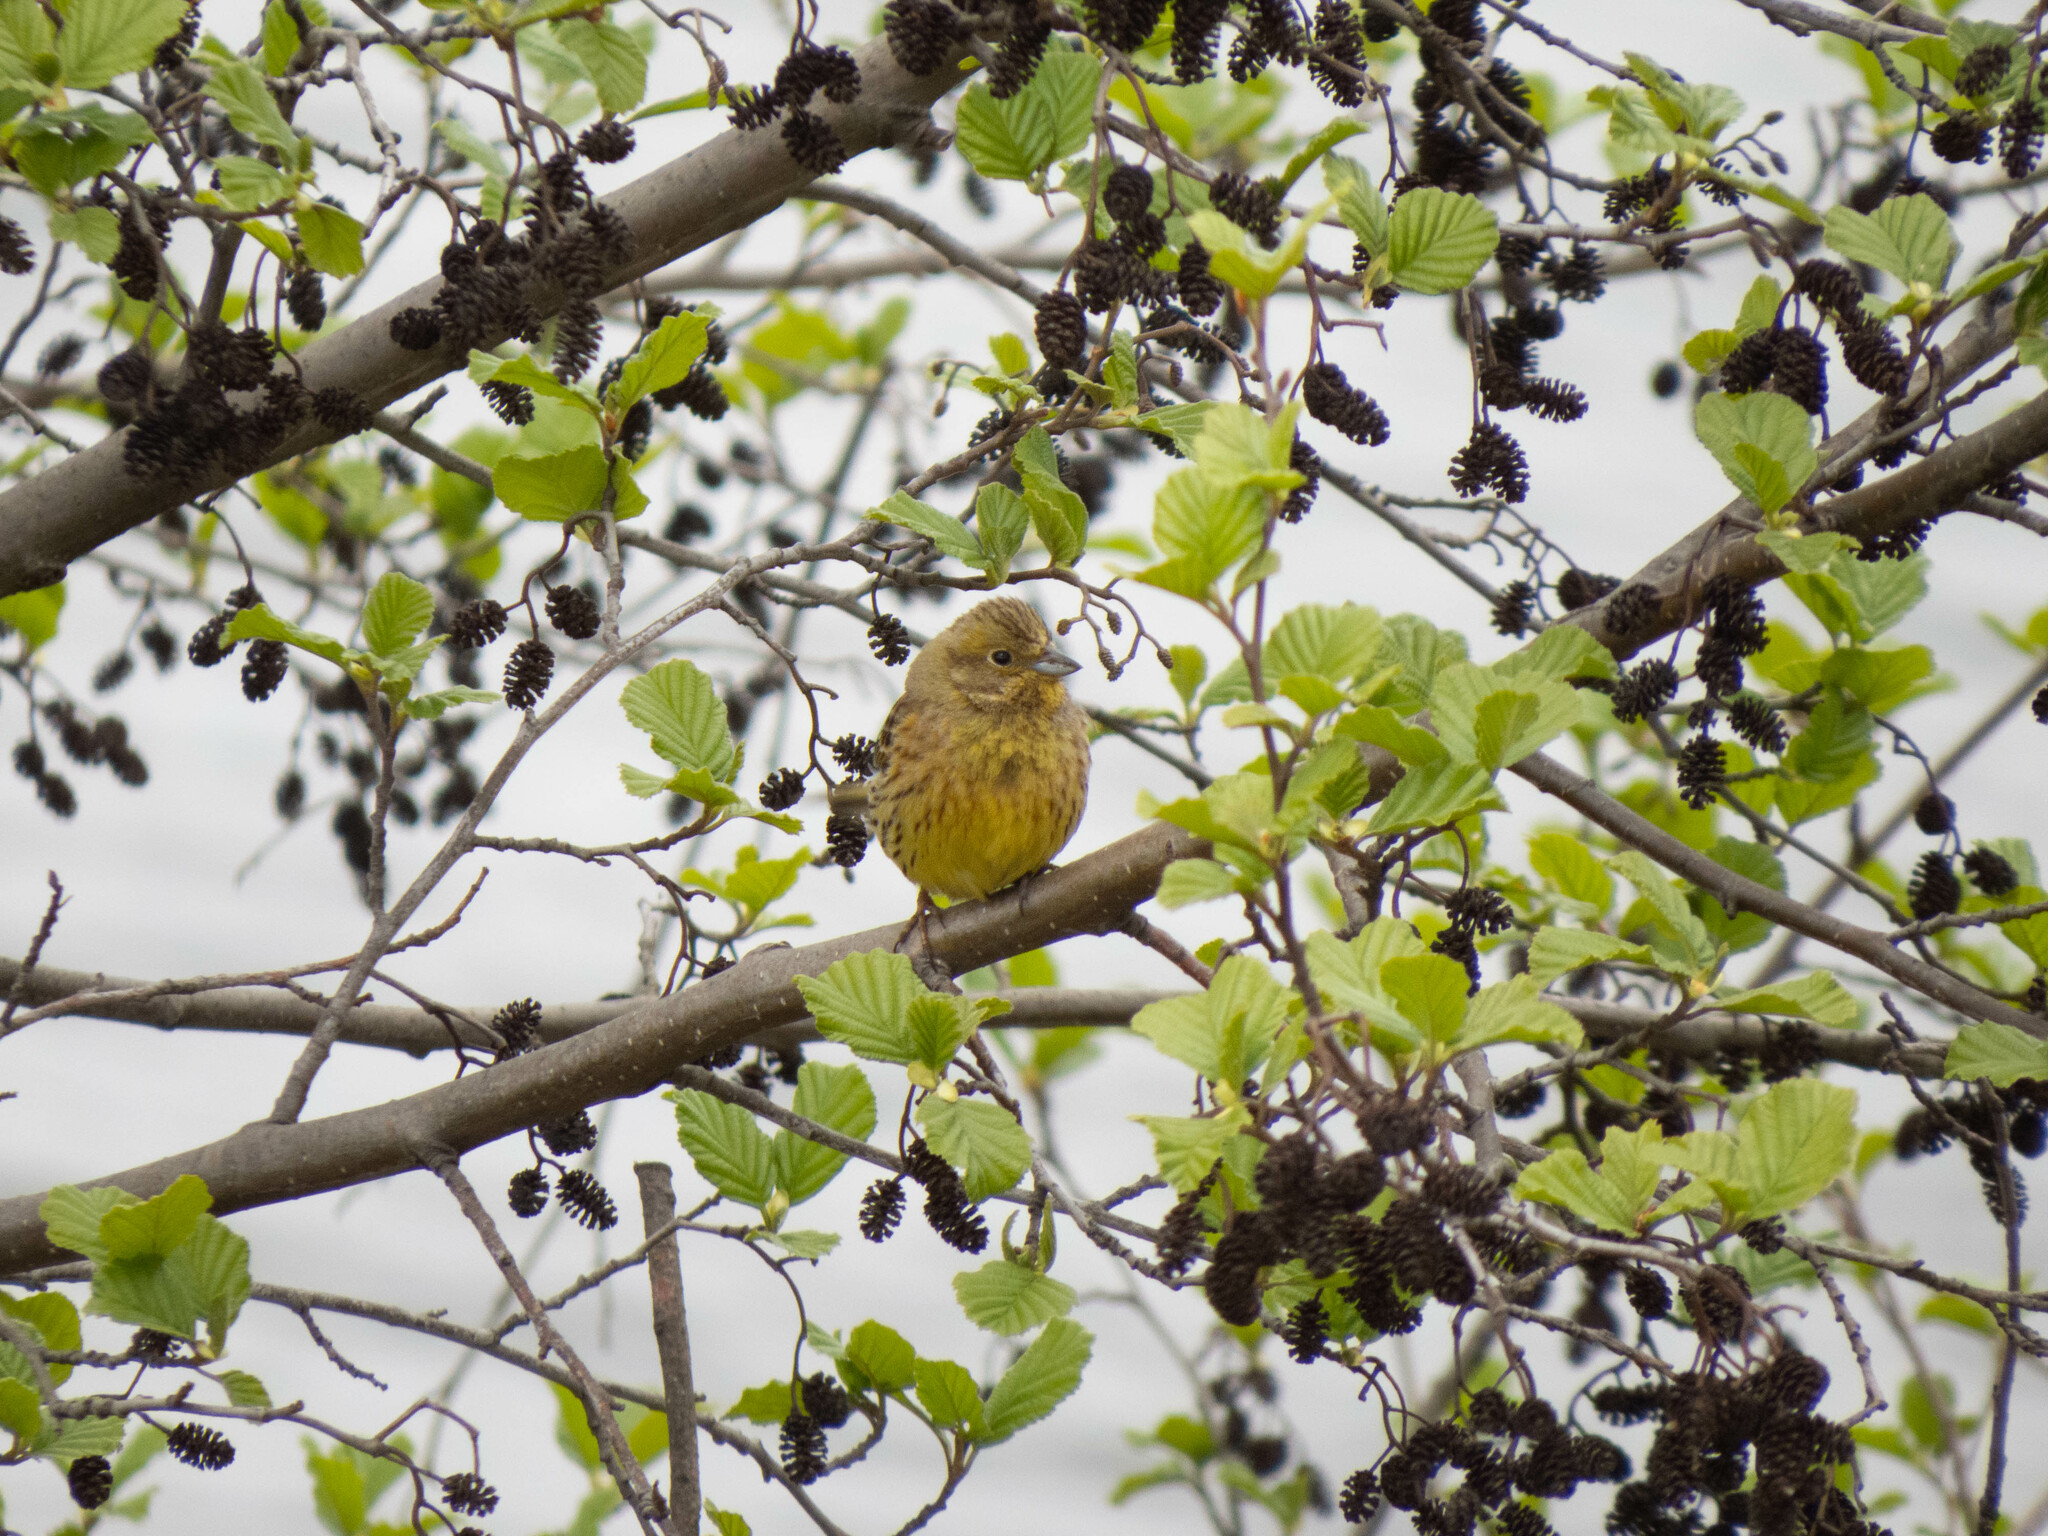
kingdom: Animalia
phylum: Chordata
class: Aves
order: Passeriformes
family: Emberizidae
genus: Emberiza
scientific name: Emberiza citrinella
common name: Yellowhammer
